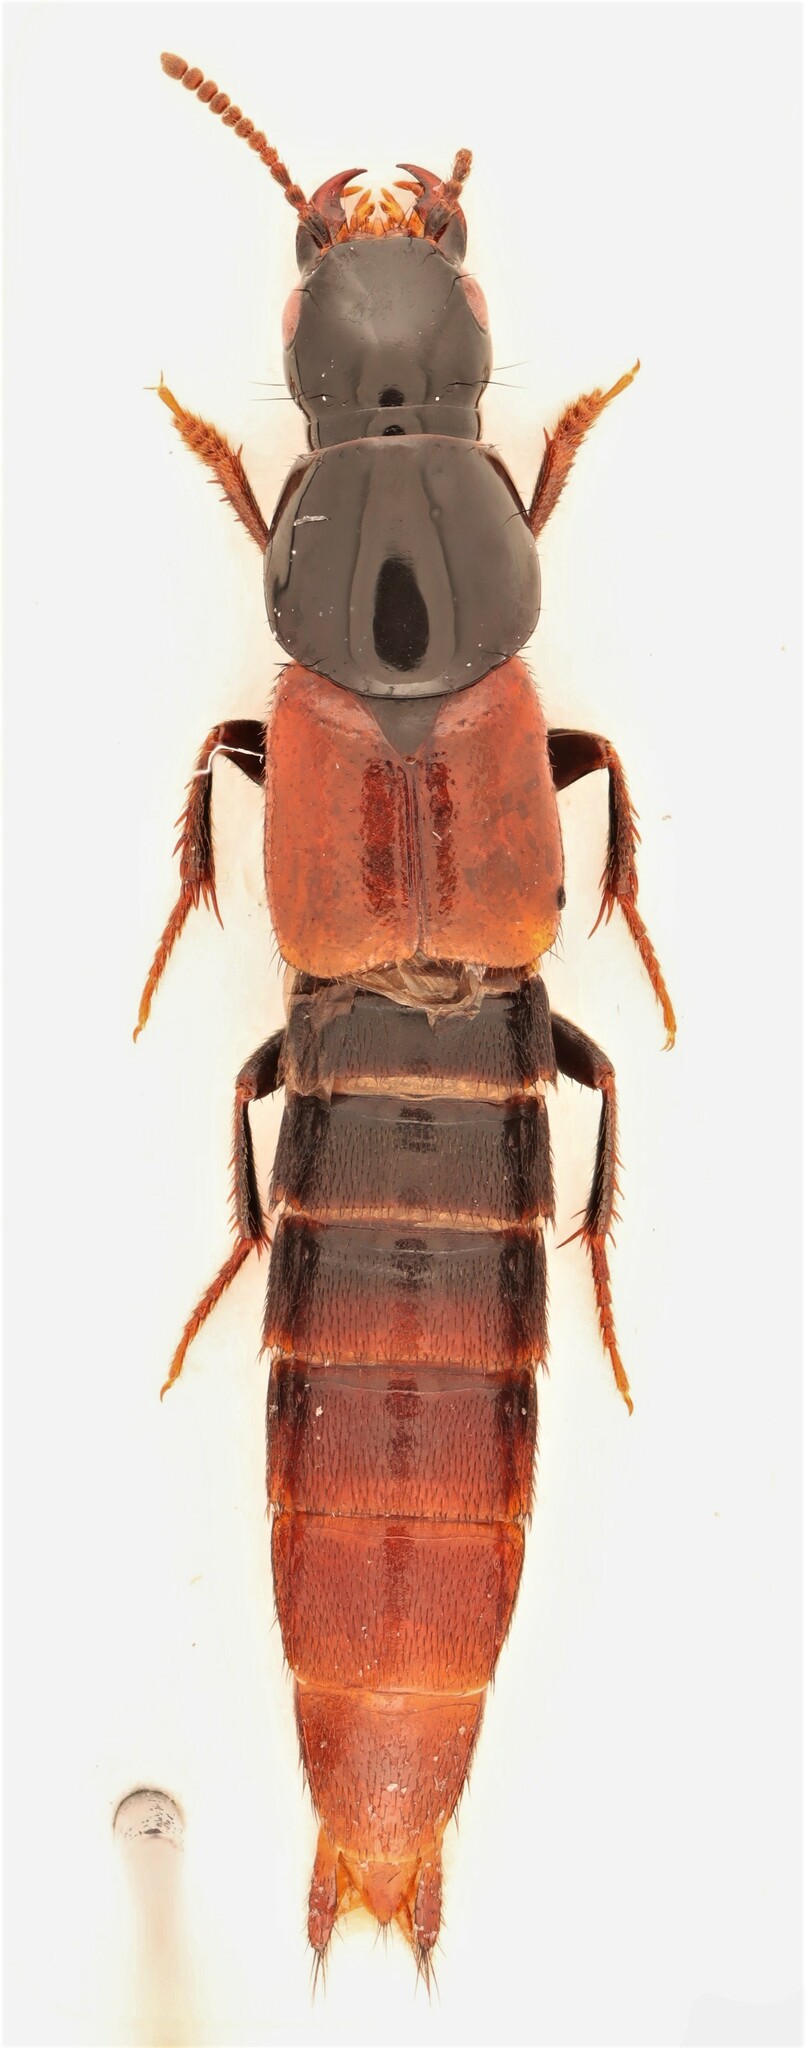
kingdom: Animalia
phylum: Arthropoda
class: Insecta
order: Coleoptera
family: Staphylinidae
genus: Quedius
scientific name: Quedius bicoloris
